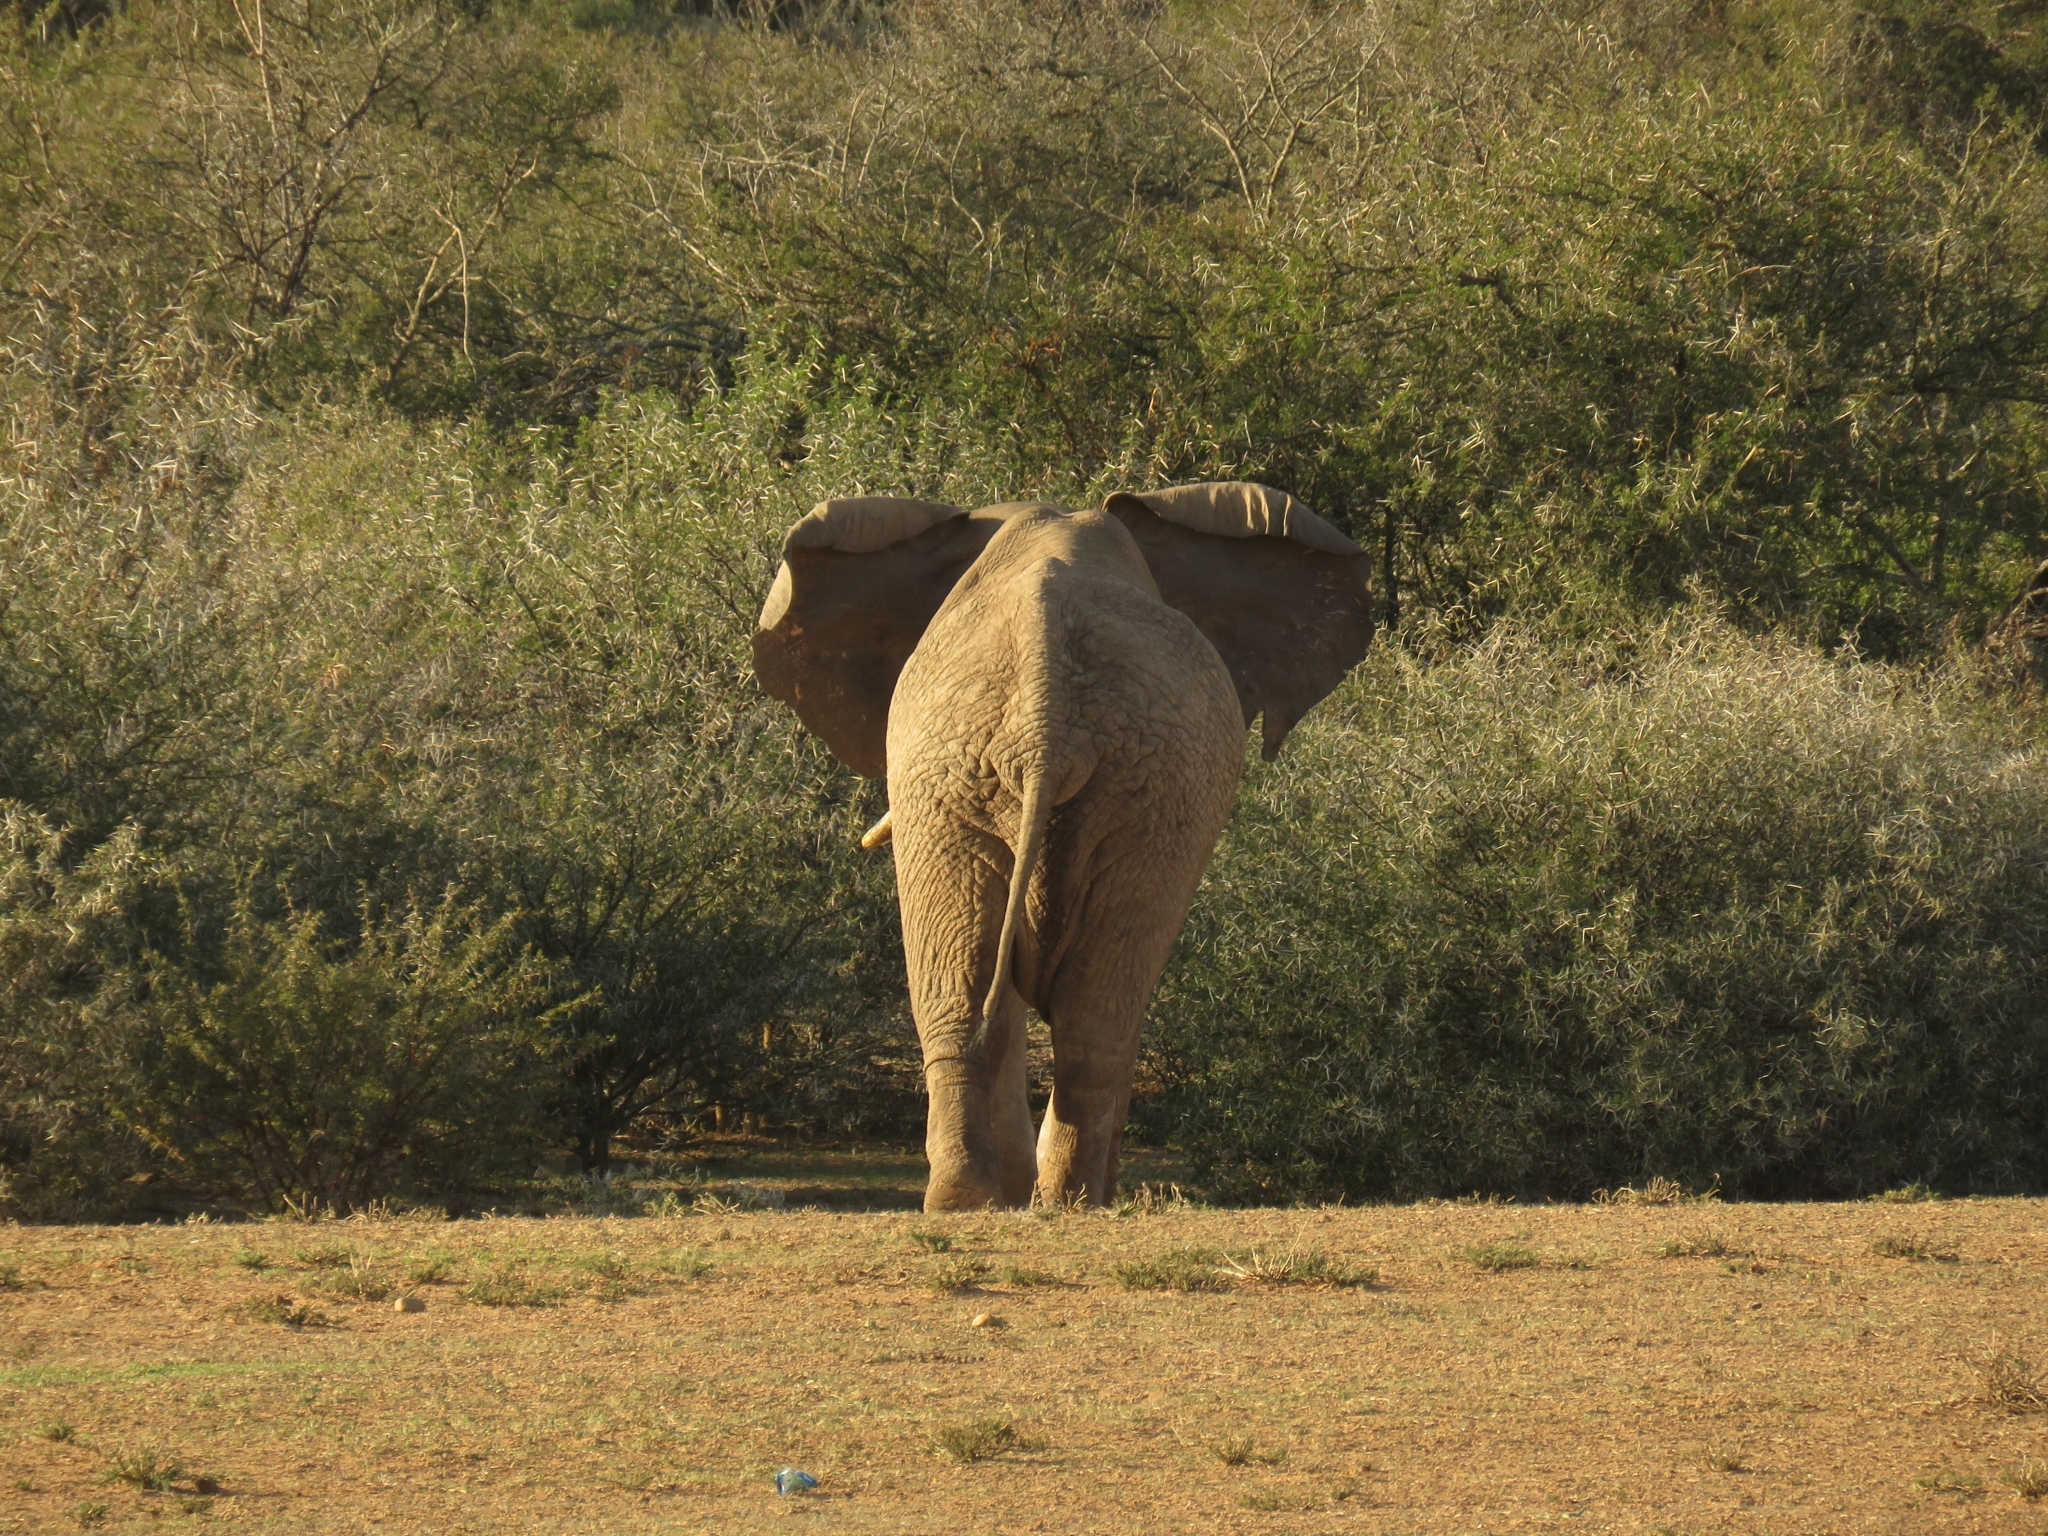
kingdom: Animalia
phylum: Chordata
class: Mammalia
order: Proboscidea
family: Elephantidae
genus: Loxodonta
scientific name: Loxodonta africana
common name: African elephant
